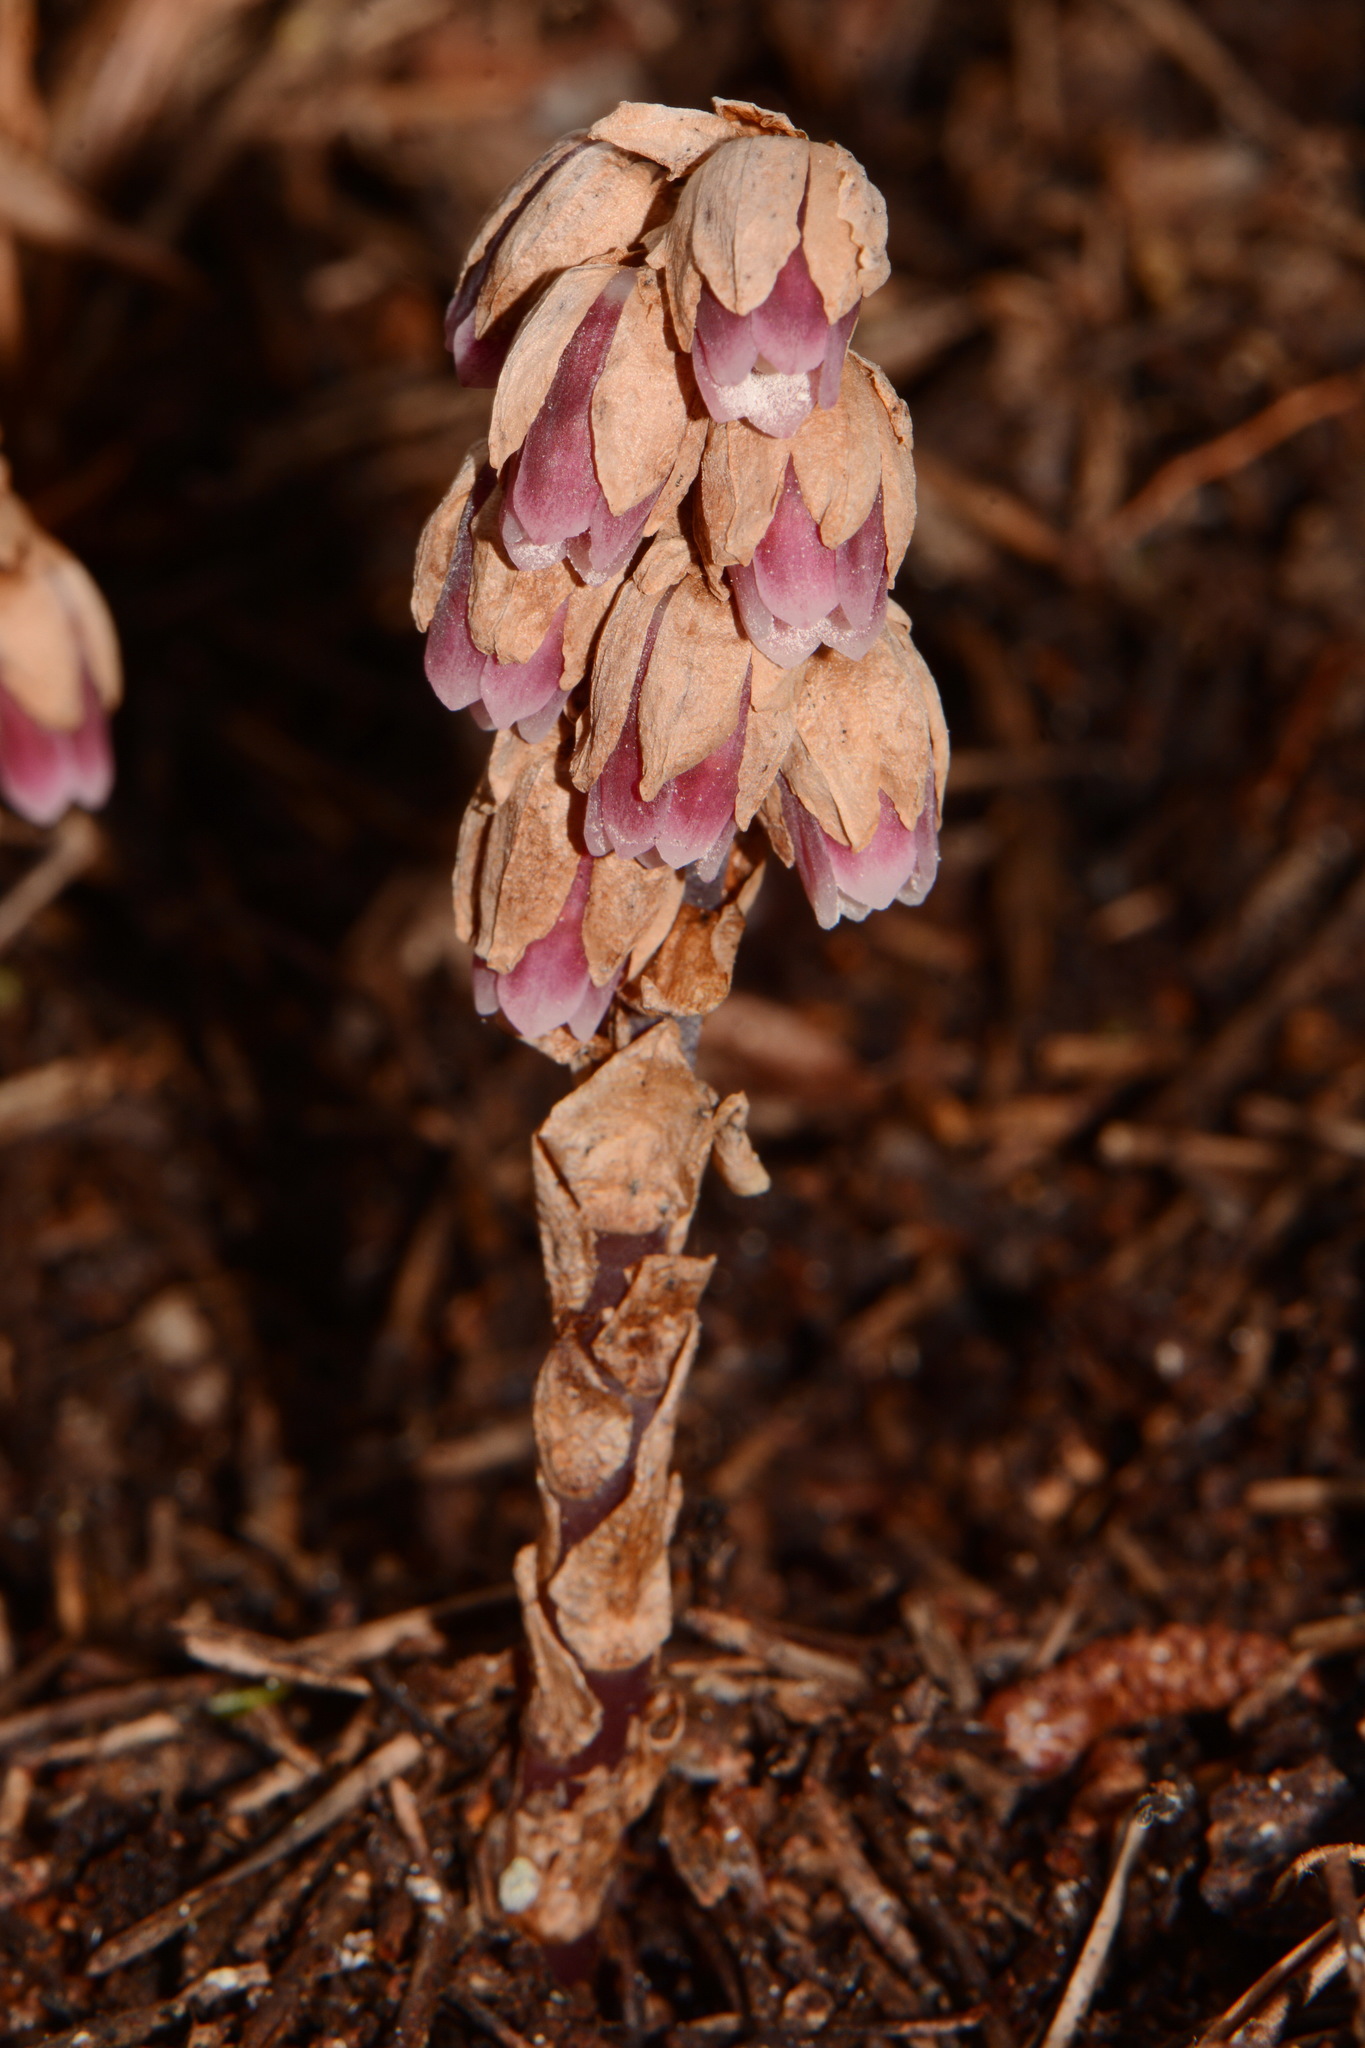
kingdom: Plantae
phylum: Tracheophyta
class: Magnoliopsida
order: Ericales
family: Ericaceae
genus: Monotropsis
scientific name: Monotropsis odorata
